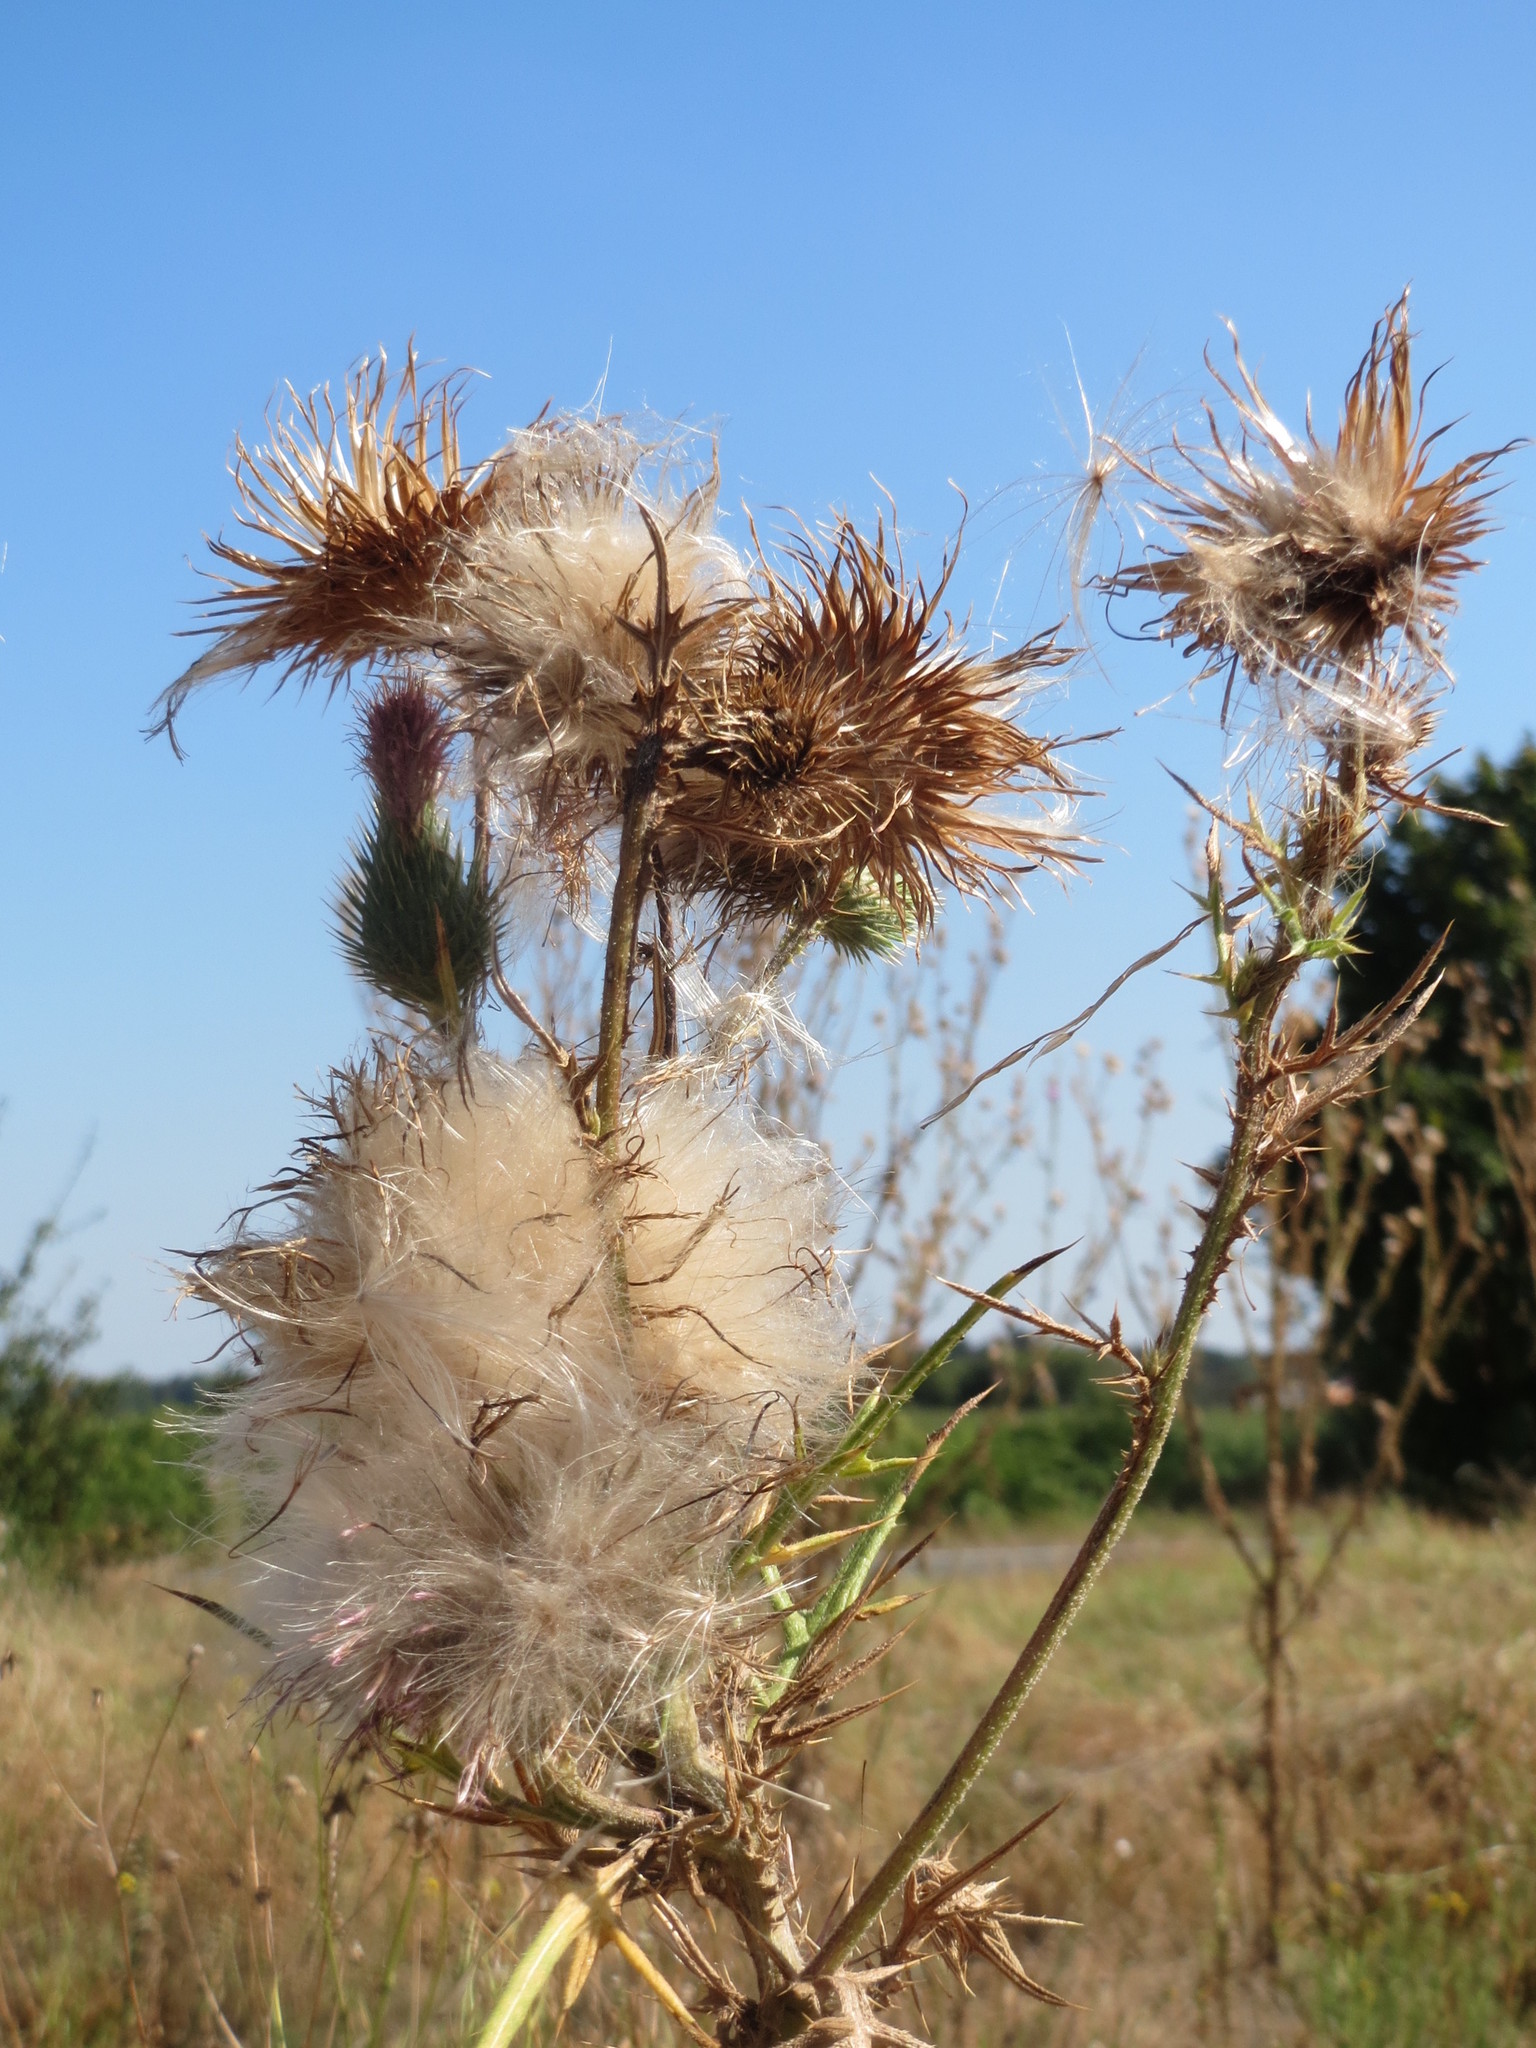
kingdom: Plantae
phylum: Tracheophyta
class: Magnoliopsida
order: Asterales
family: Asteraceae
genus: Cirsium
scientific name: Cirsium vulgare
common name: Bull thistle
